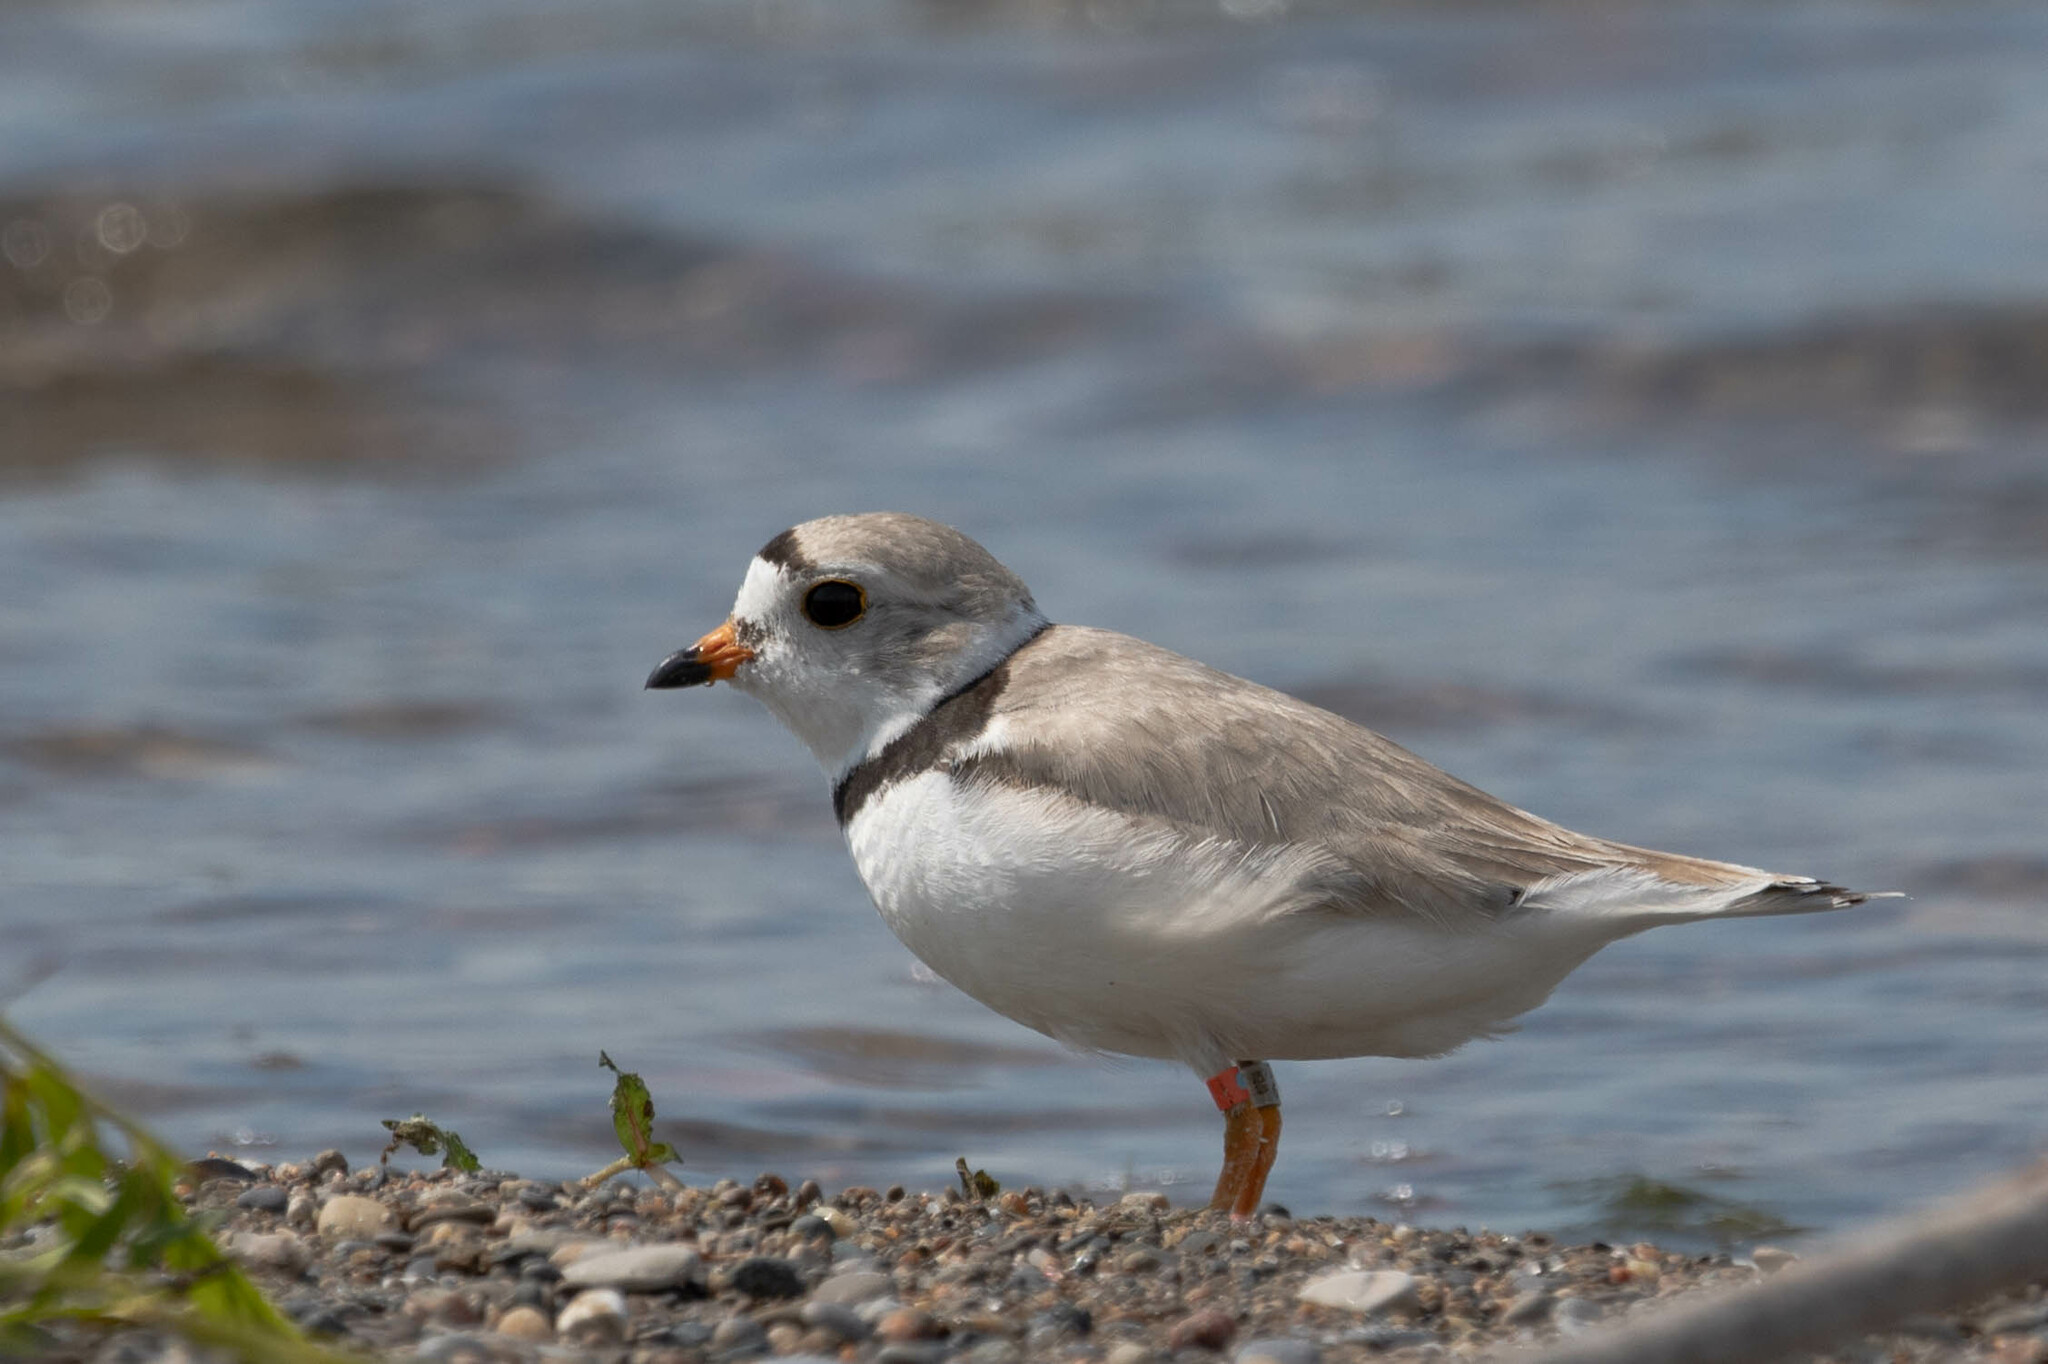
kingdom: Animalia
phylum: Chordata
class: Aves
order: Charadriiformes
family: Charadriidae
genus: Charadrius
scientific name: Charadrius melodus
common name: Piping plover
